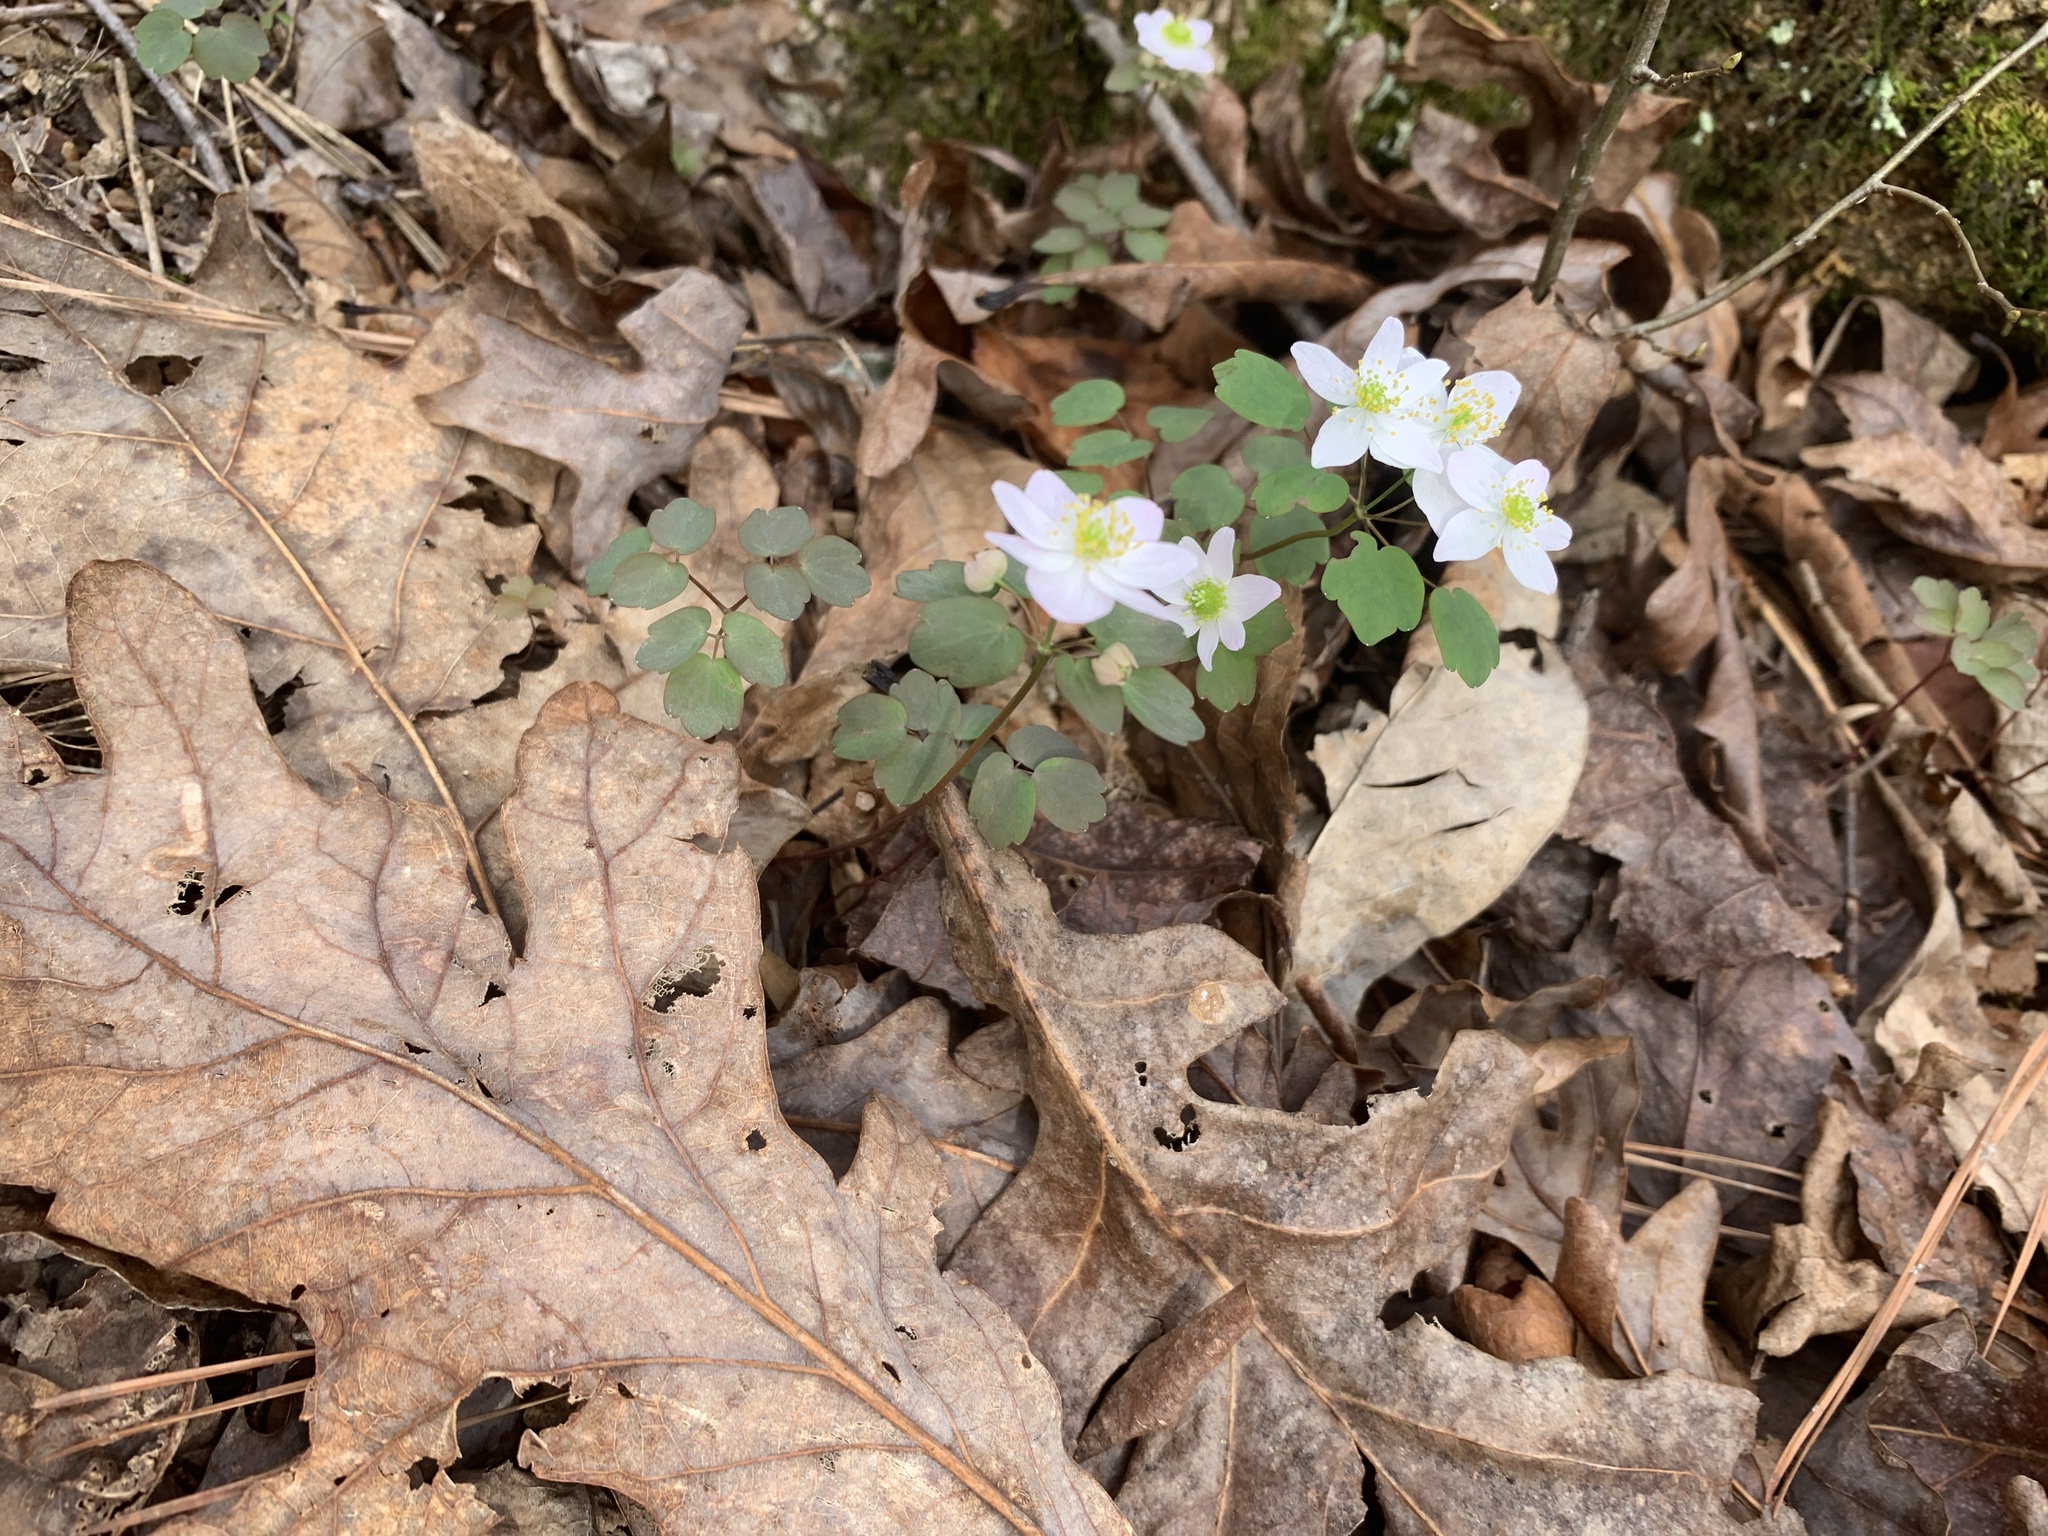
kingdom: Plantae
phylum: Tracheophyta
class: Magnoliopsida
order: Ranunculales
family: Ranunculaceae
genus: Thalictrum
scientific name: Thalictrum thalictroides
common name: Rue-anemone
